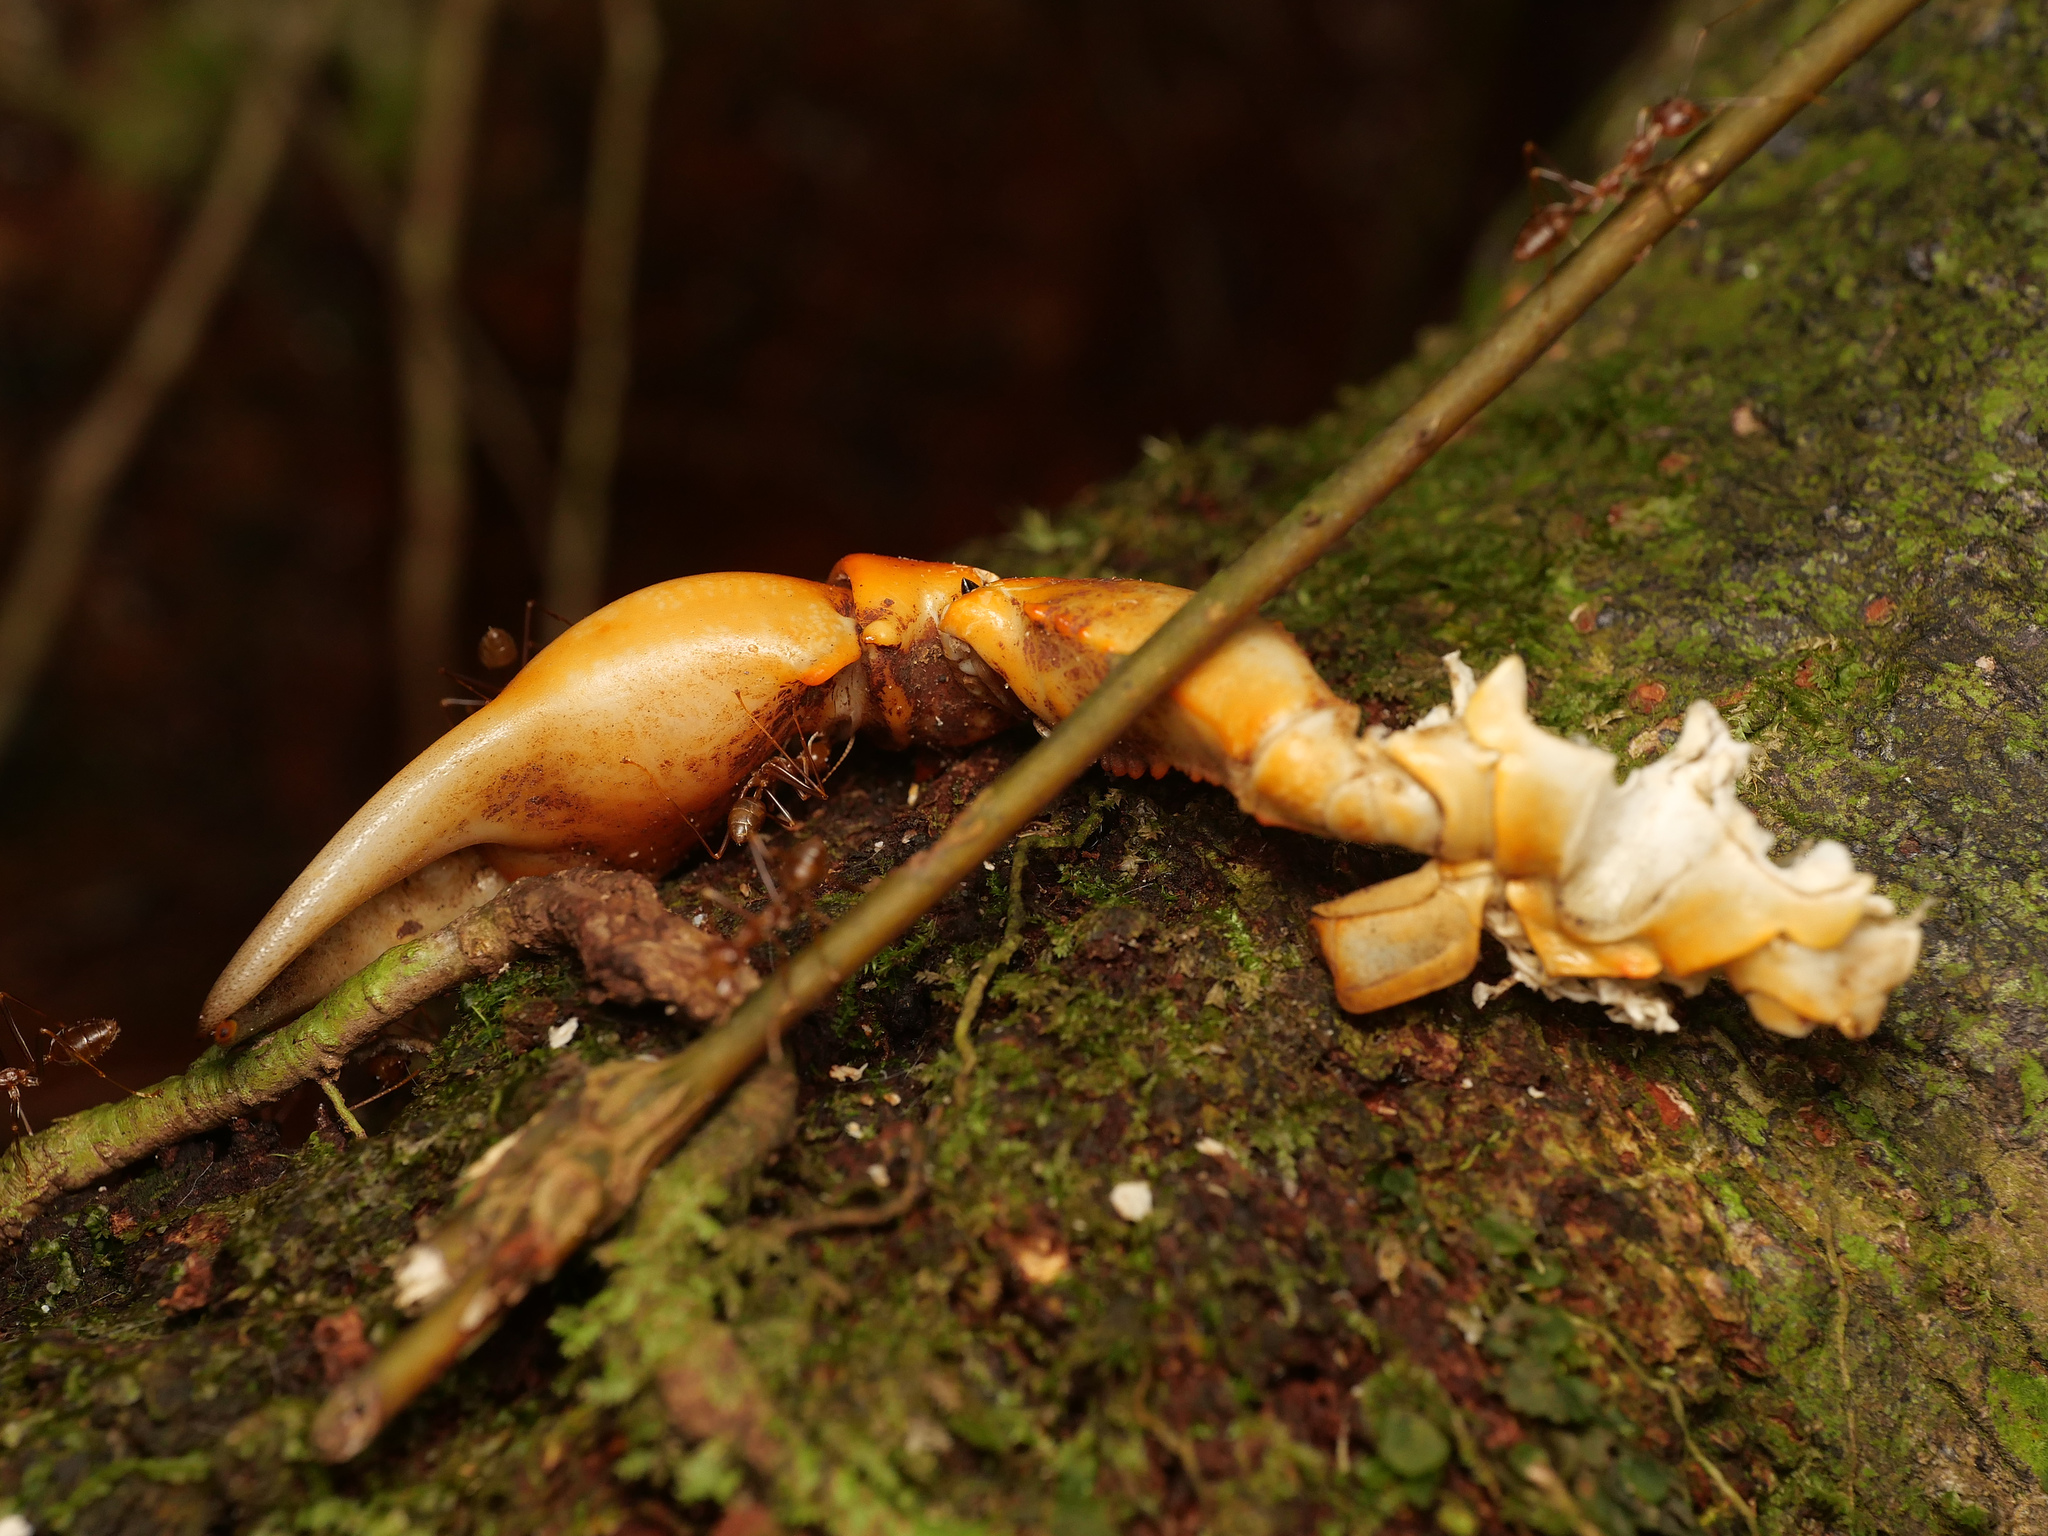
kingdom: Animalia
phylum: Arthropoda
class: Insecta
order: Hymenoptera
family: Formicidae
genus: Oecophylla
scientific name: Oecophylla smaragdina
